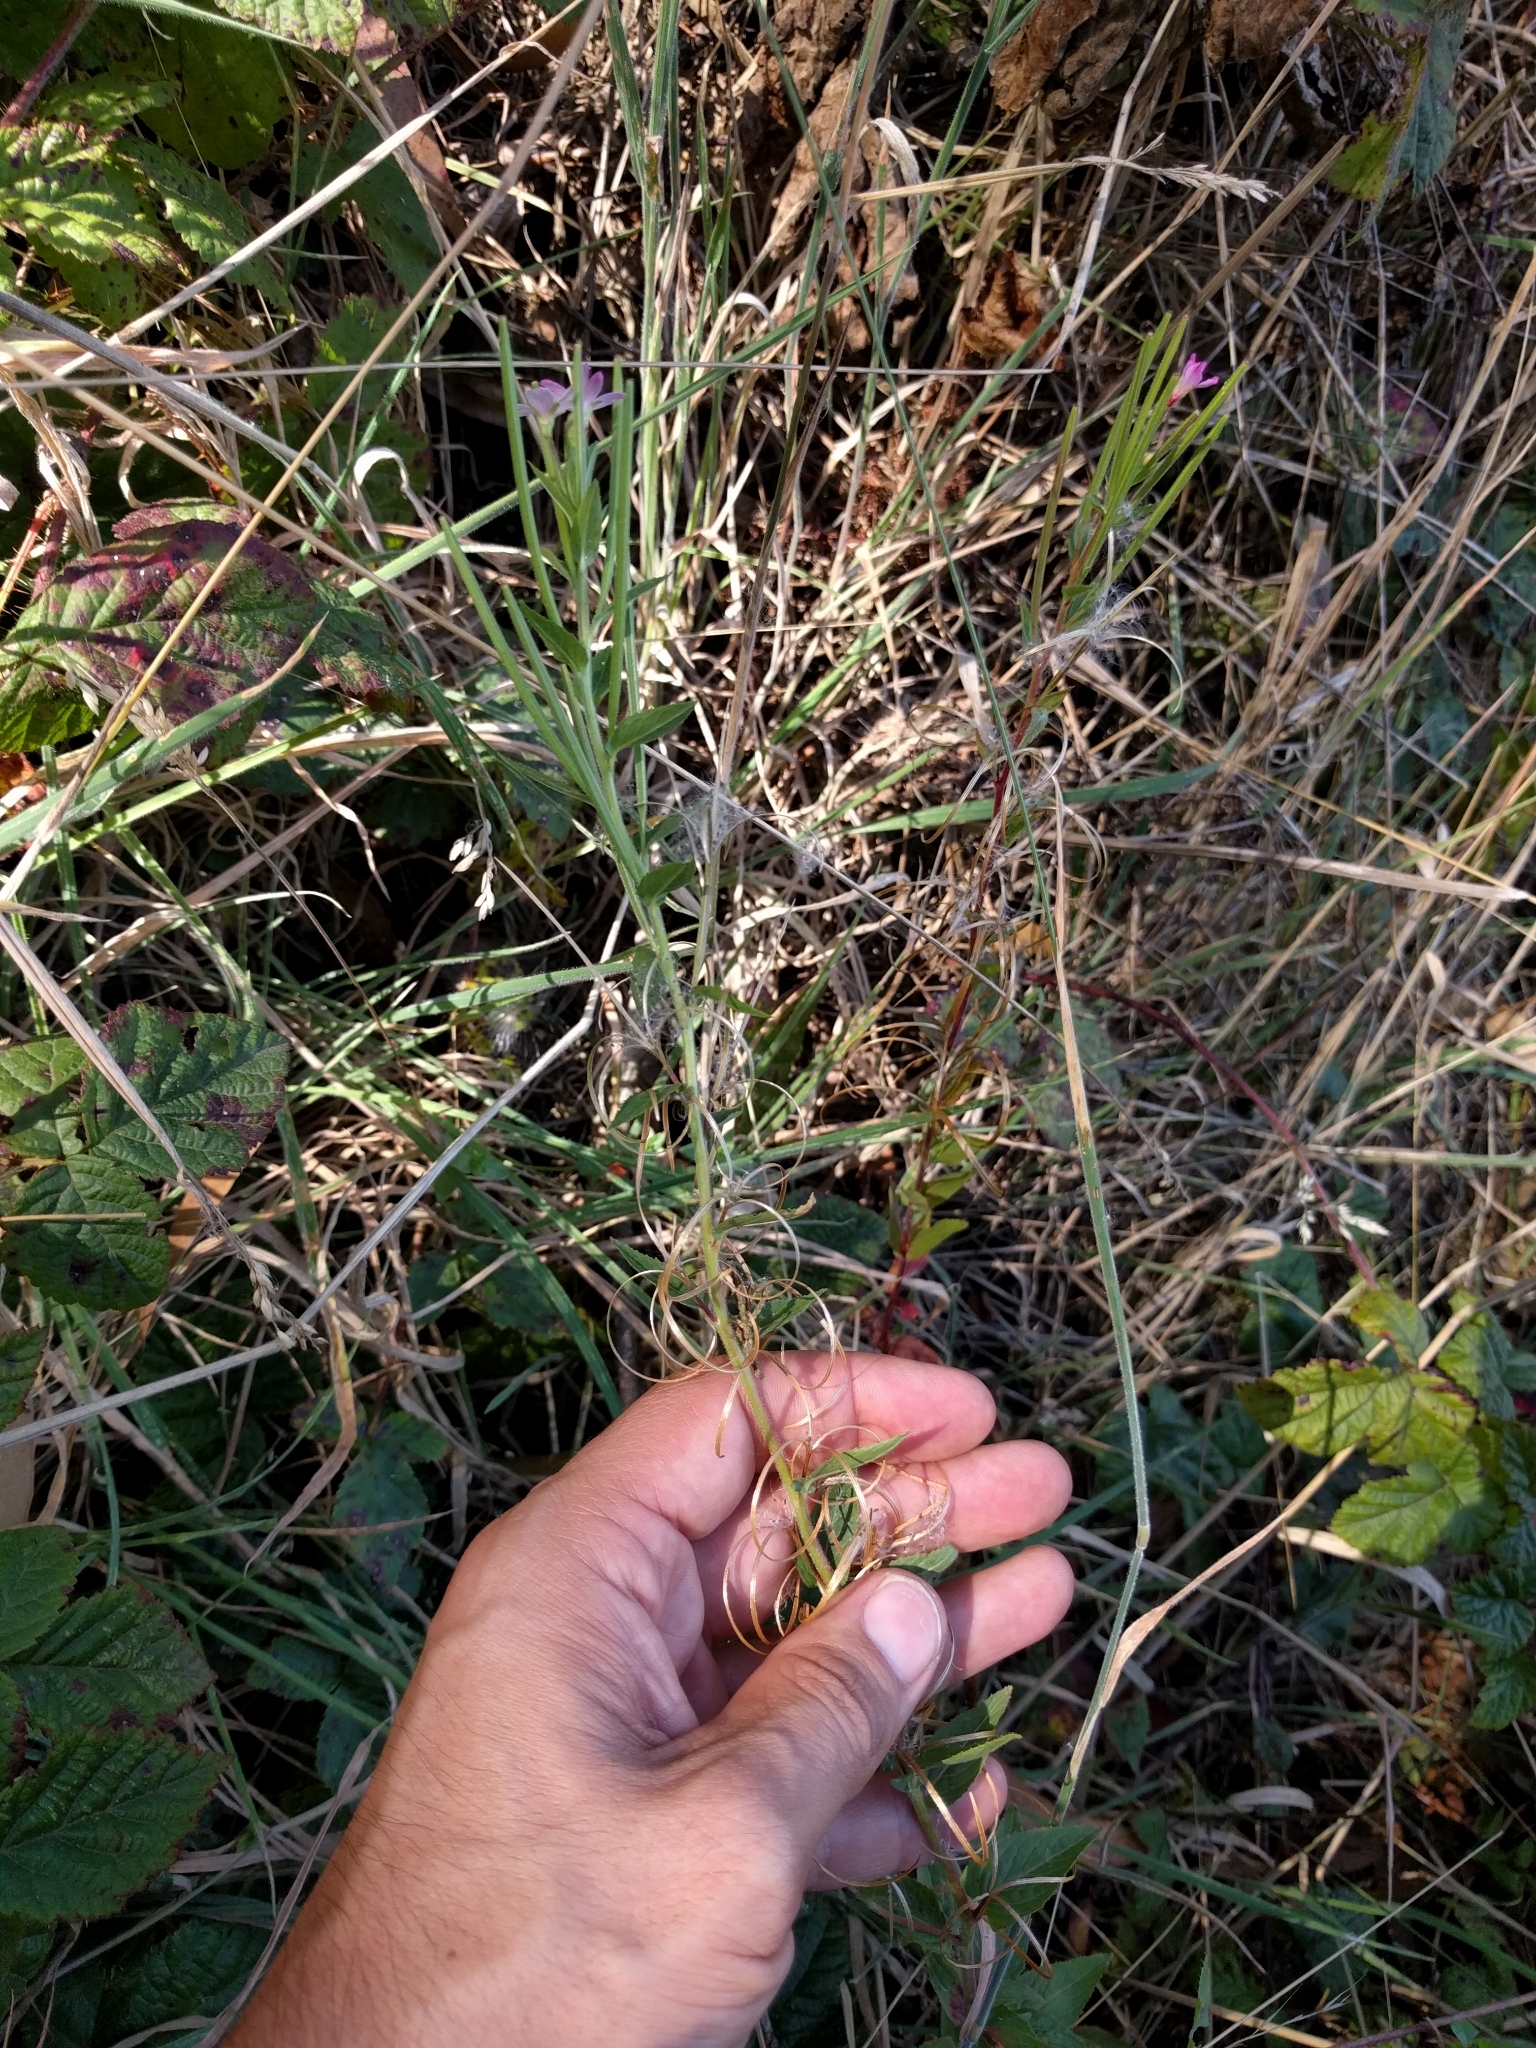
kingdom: Plantae
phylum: Tracheophyta
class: Magnoliopsida
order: Myrtales
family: Onagraceae
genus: Epilobium
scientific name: Epilobium ciliatum
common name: American willowherb
